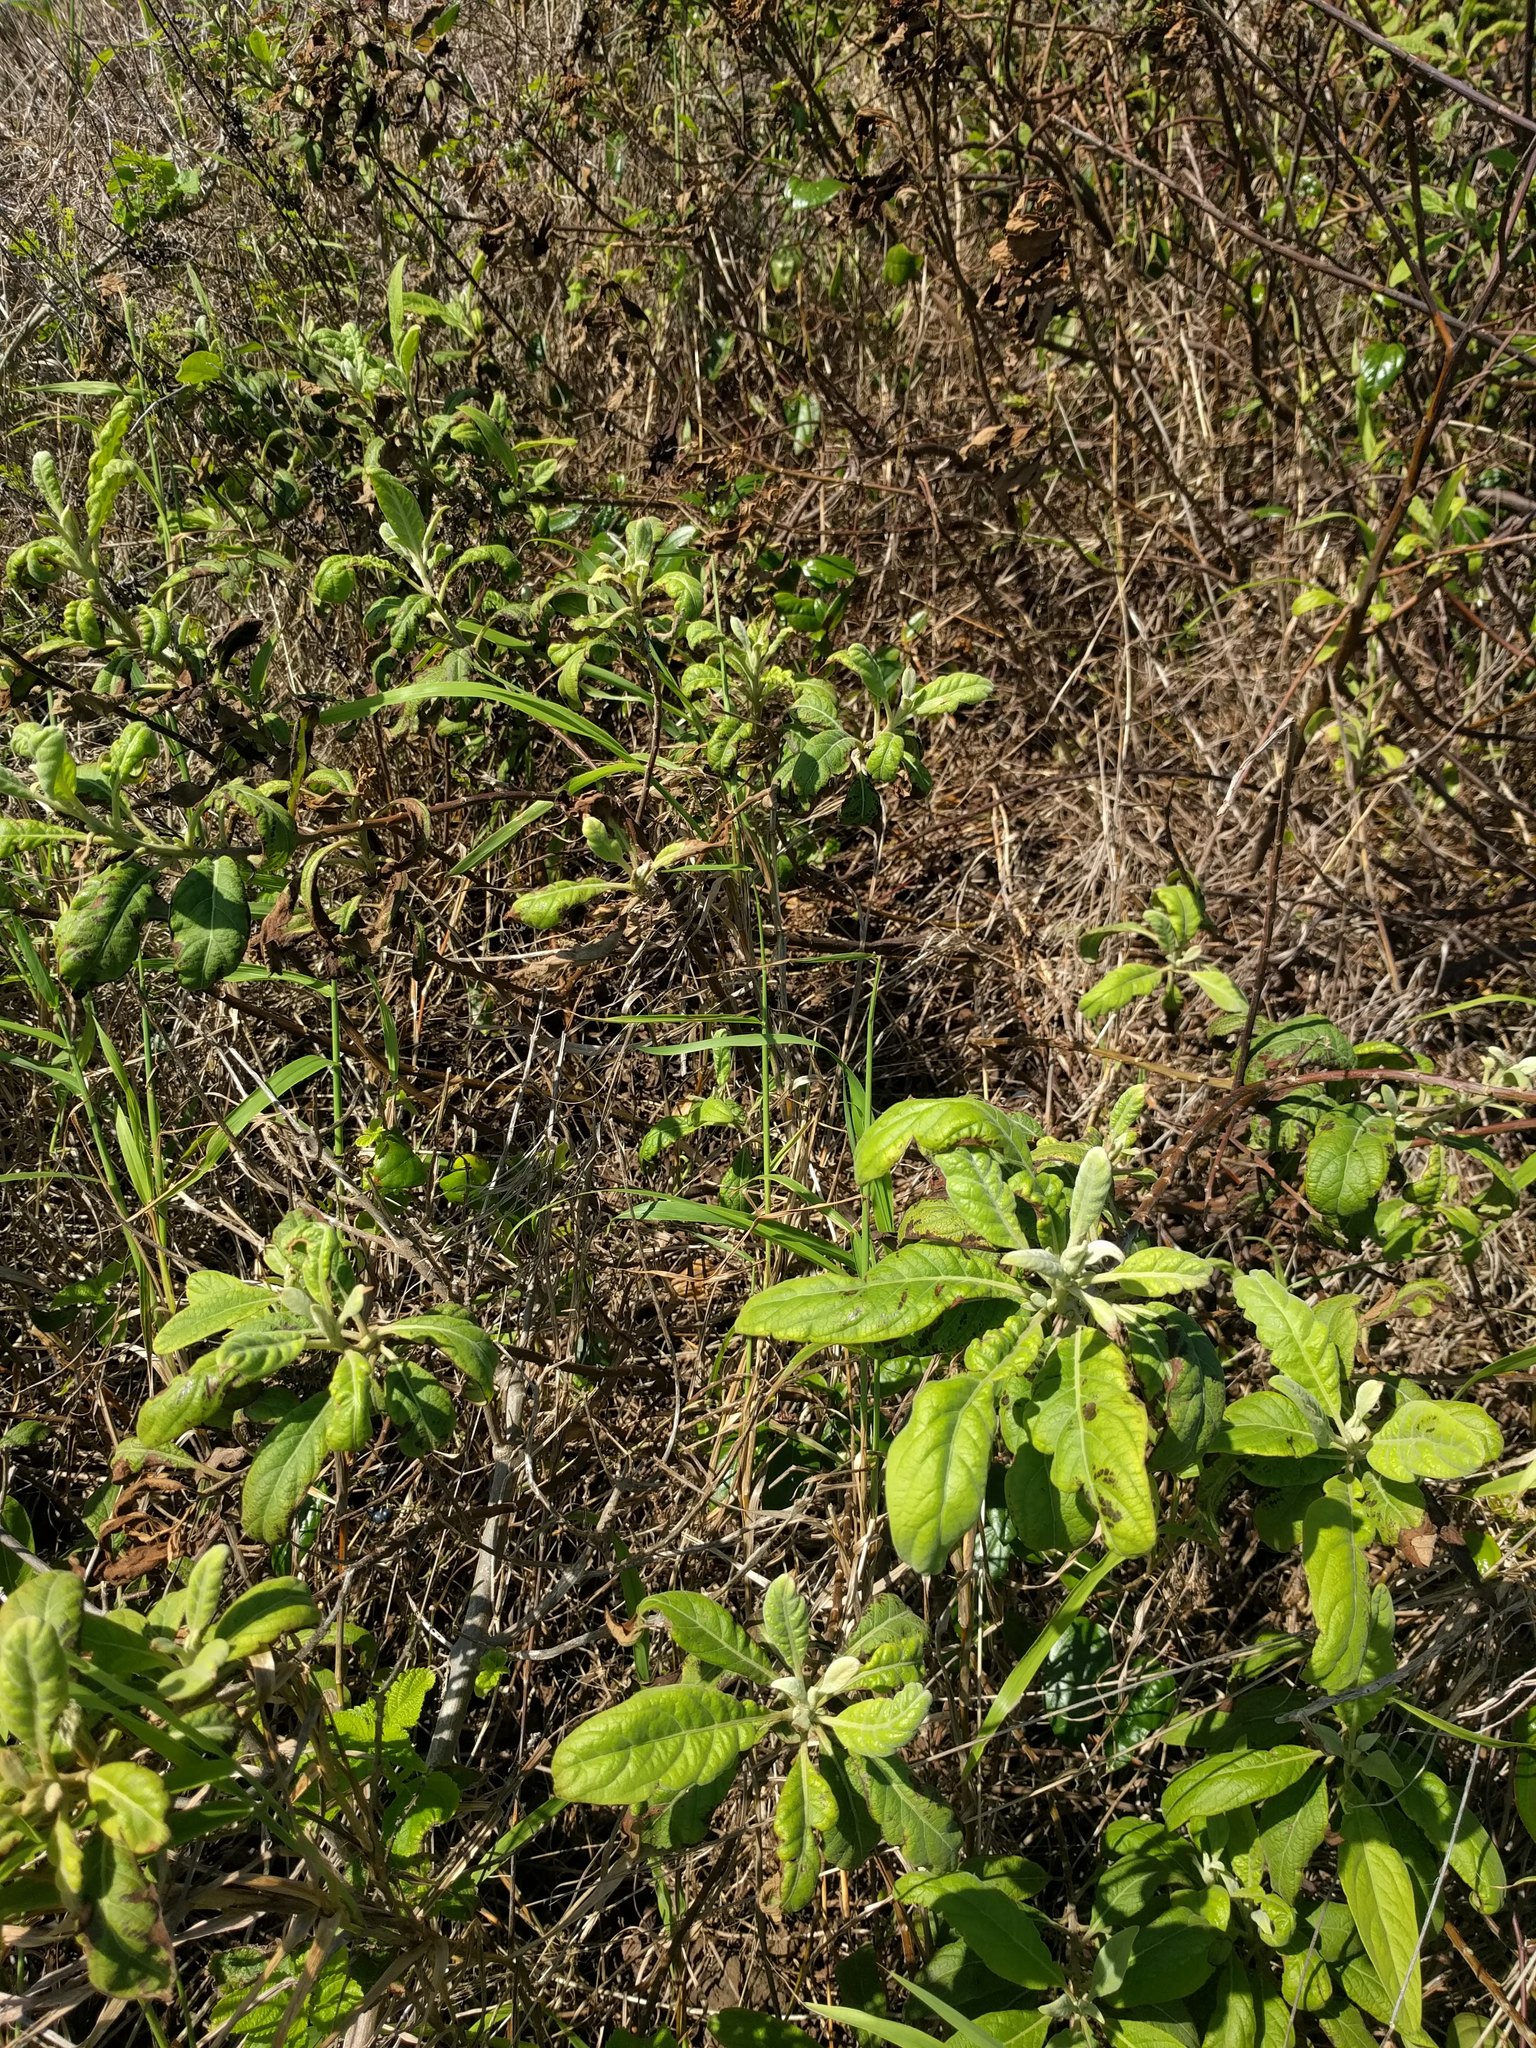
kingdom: Plantae
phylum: Tracheophyta
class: Magnoliopsida
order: Asterales
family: Asteraceae
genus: Pluchea
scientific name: Pluchea carolinensis
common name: Marsh fleabane
